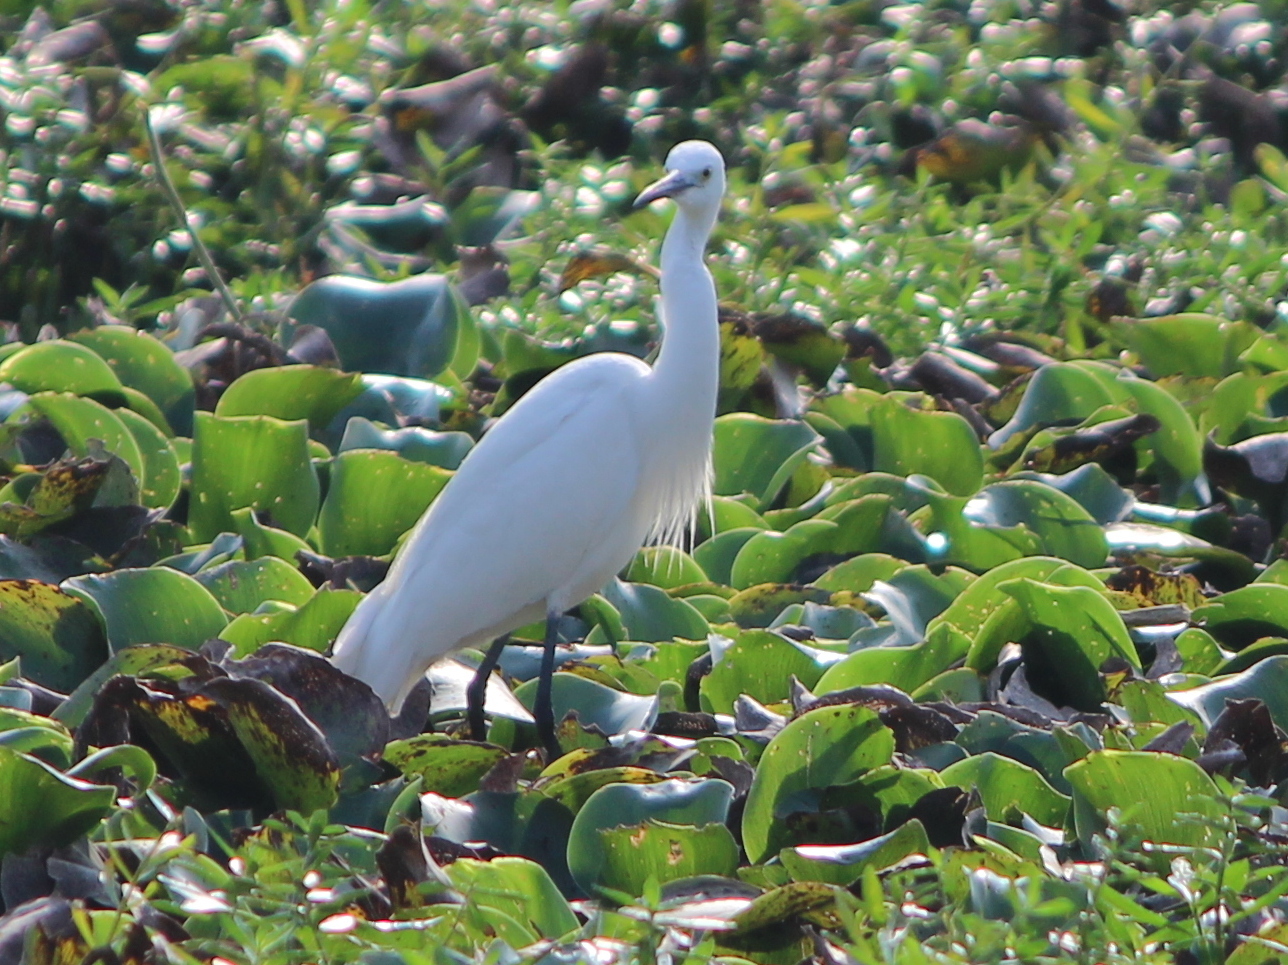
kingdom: Animalia
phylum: Chordata
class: Aves
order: Pelecaniformes
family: Ardeidae
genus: Ardea
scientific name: Ardea alba
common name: Great egret
